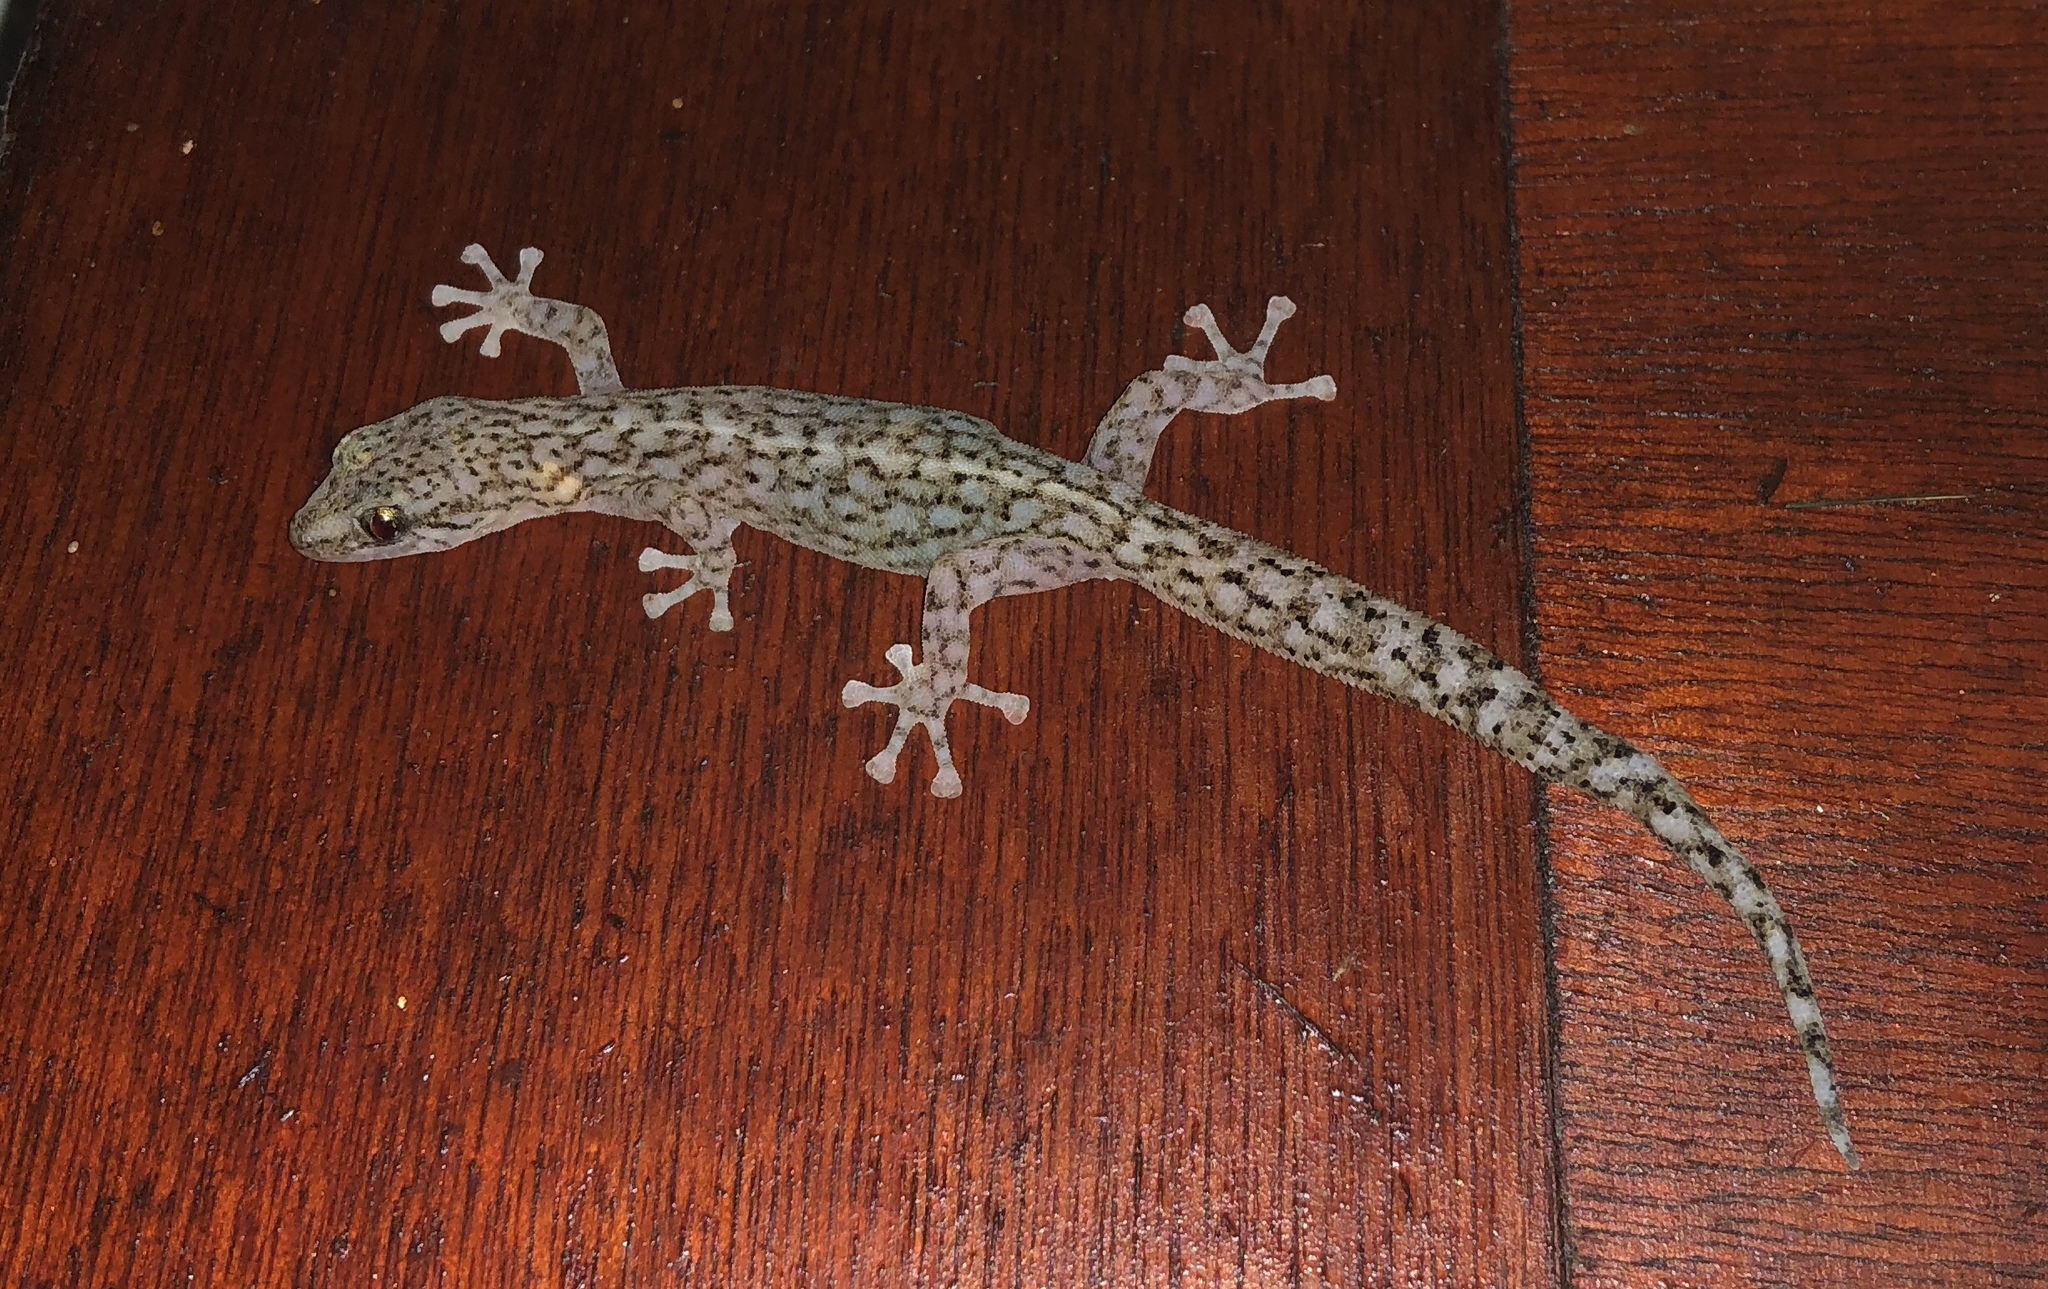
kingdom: Animalia
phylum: Chordata
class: Squamata
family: Gekkonidae
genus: Afrogecko
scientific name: Afrogecko porphyreus
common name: Marbled leaf-toed gecko
